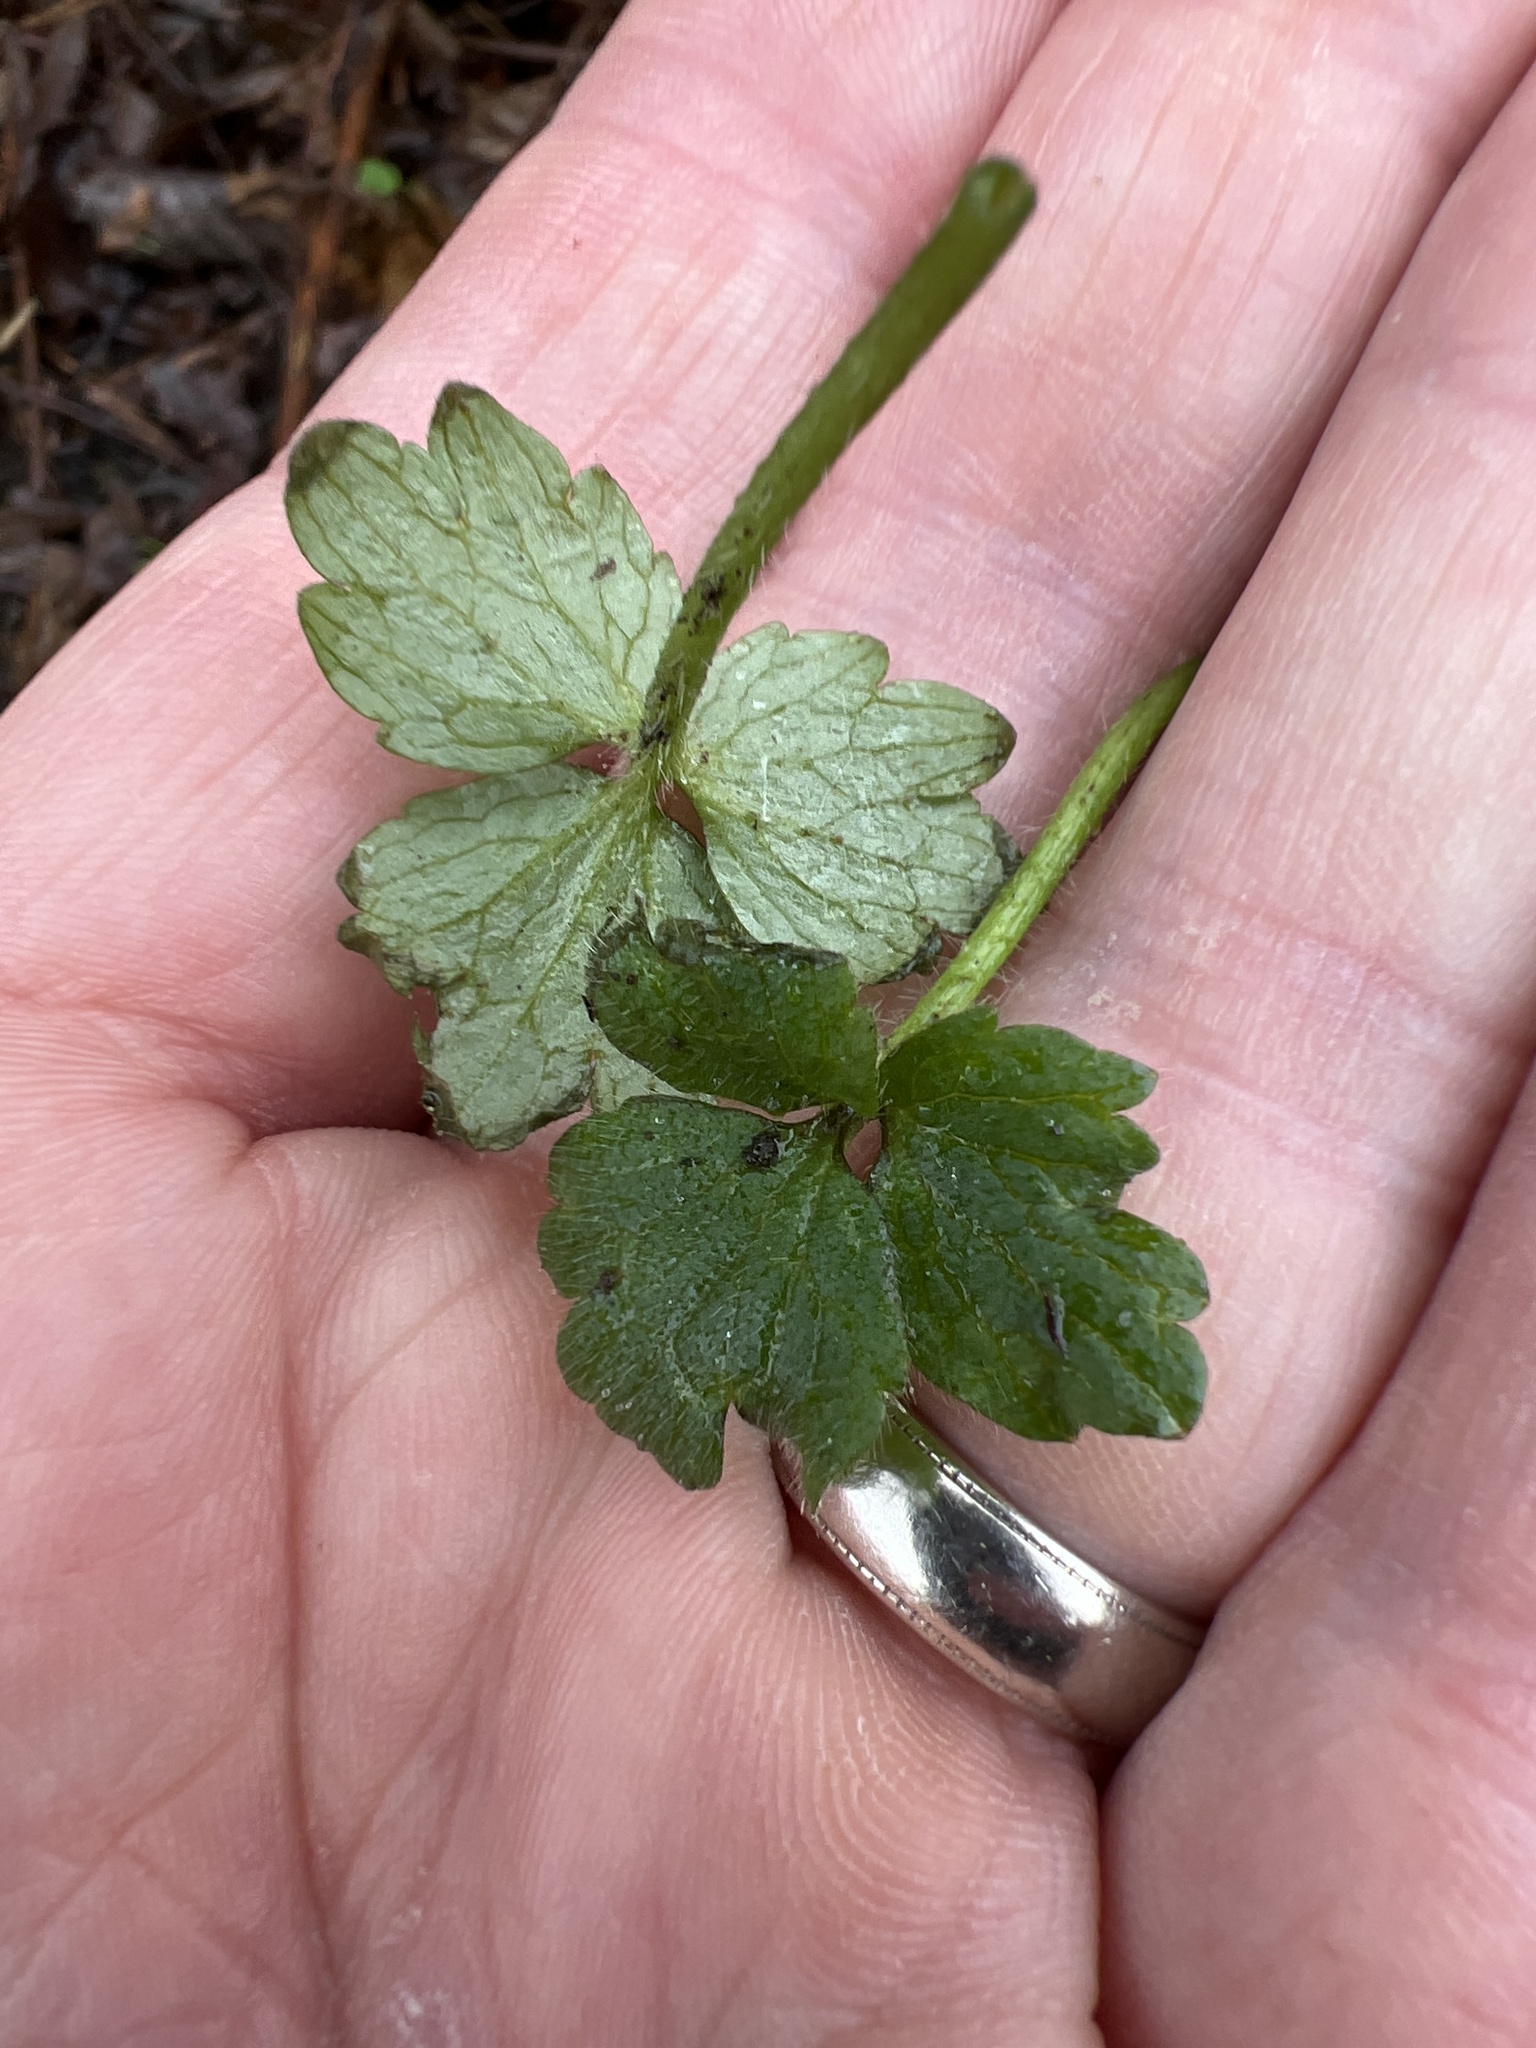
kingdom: Plantae
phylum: Tracheophyta
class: Magnoliopsida
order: Ranunculales
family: Ranunculaceae
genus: Ranunculus
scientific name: Ranunculus repens
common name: Creeping buttercup
